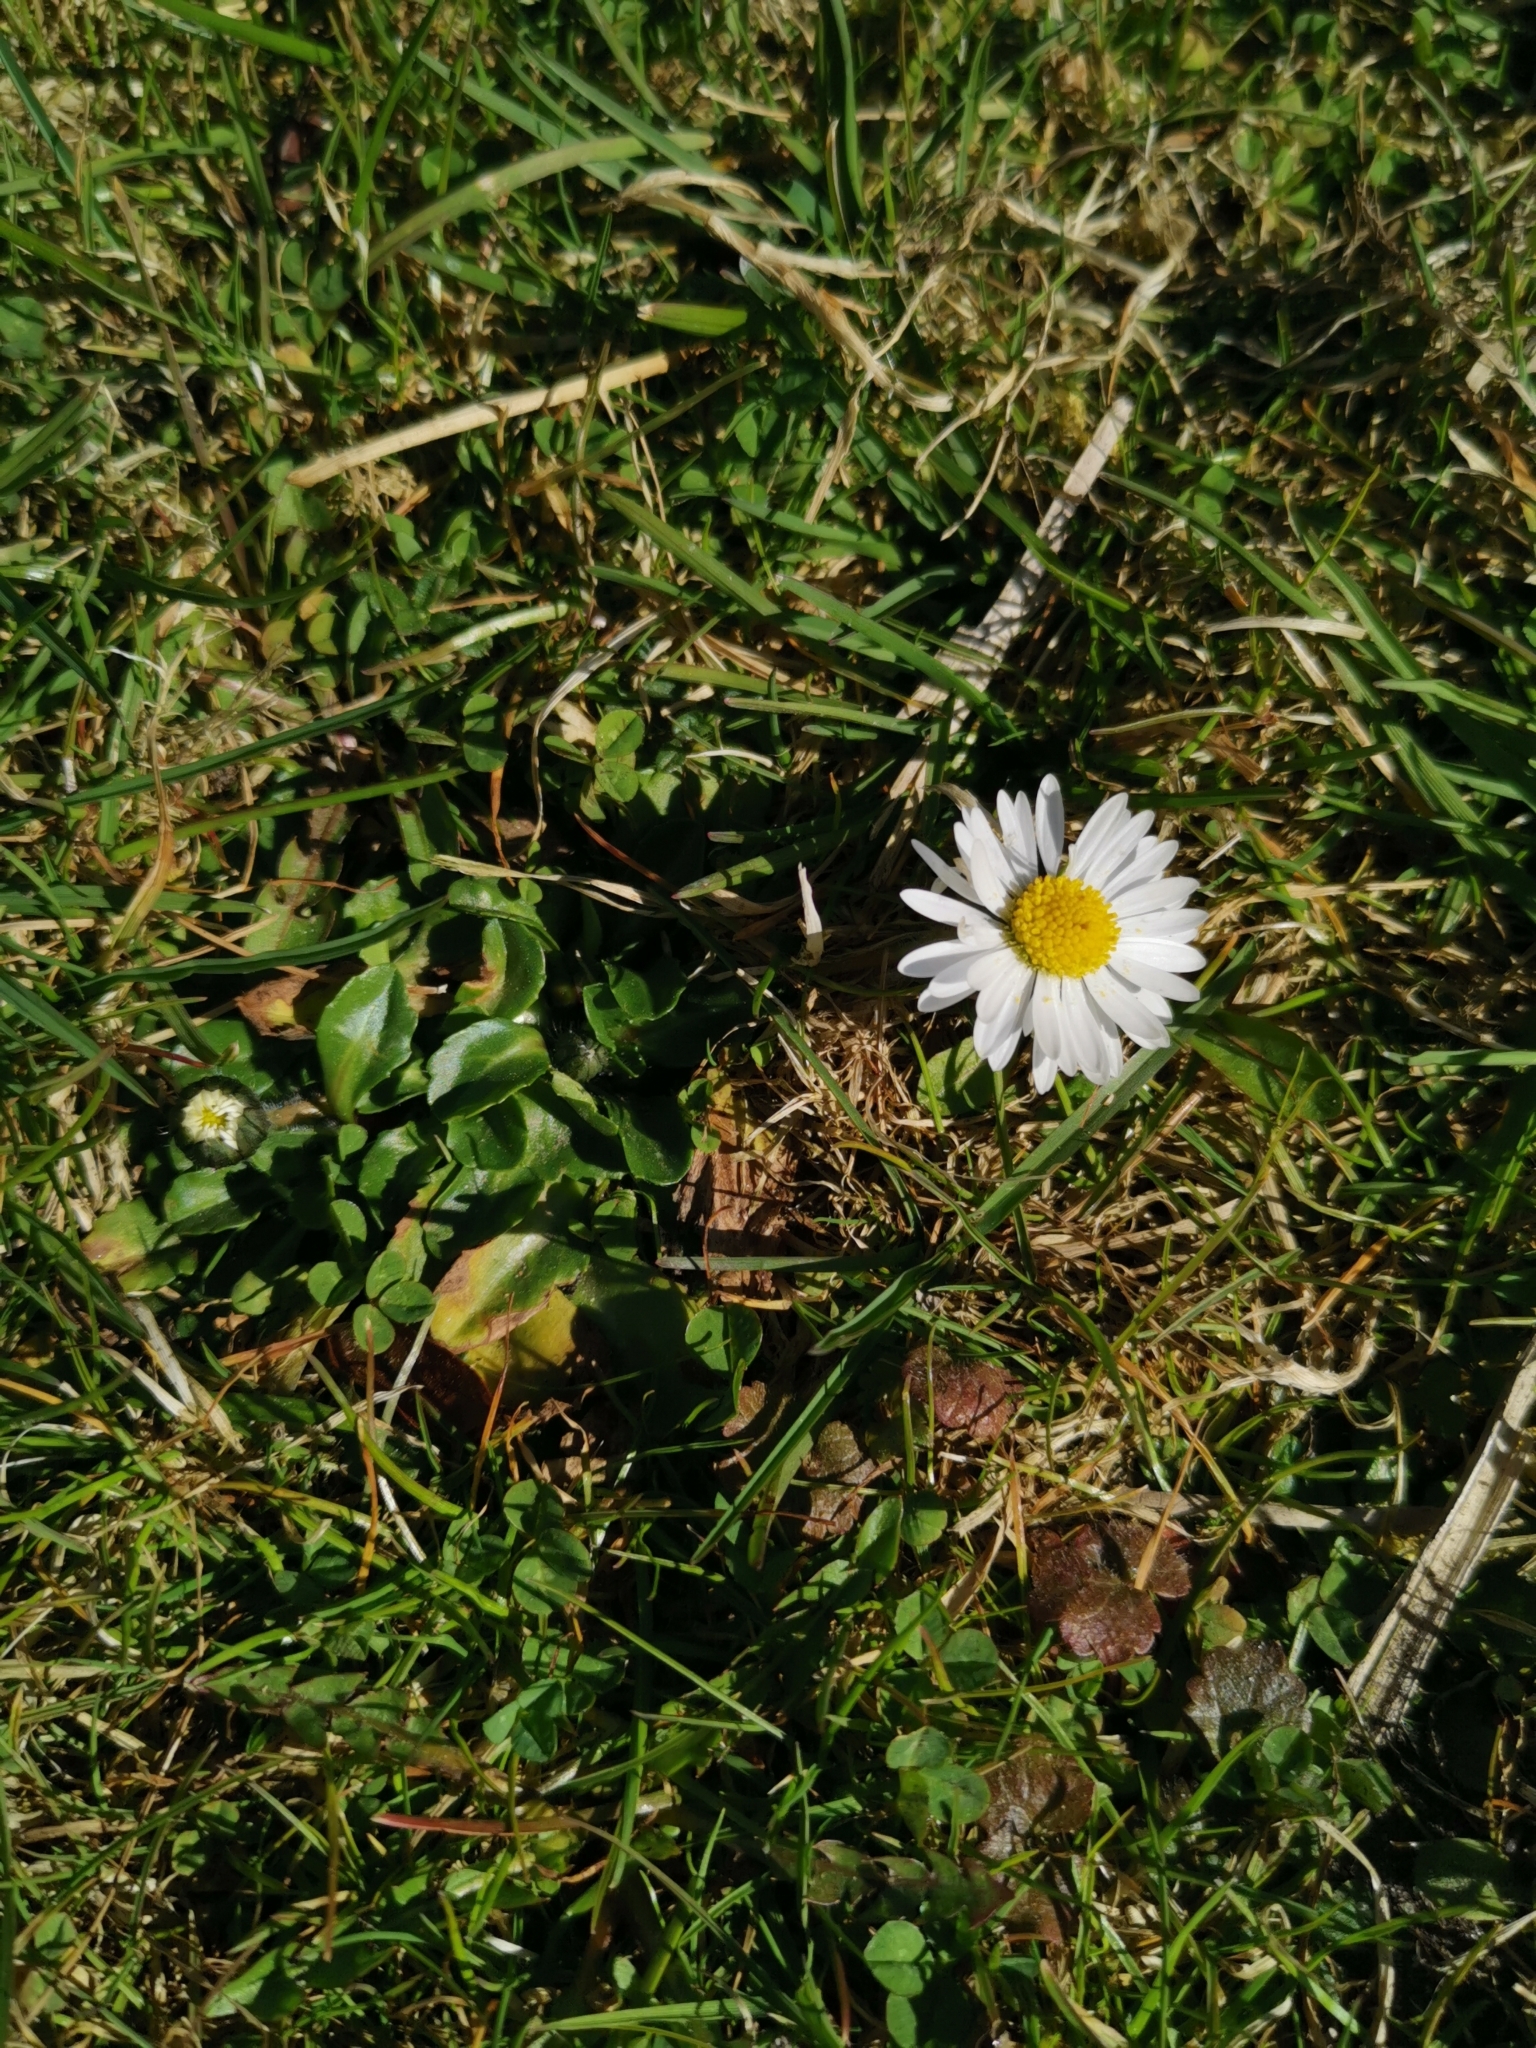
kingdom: Plantae
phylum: Tracheophyta
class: Magnoliopsida
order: Asterales
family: Asteraceae
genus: Bellis
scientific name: Bellis perennis
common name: Lawndaisy
